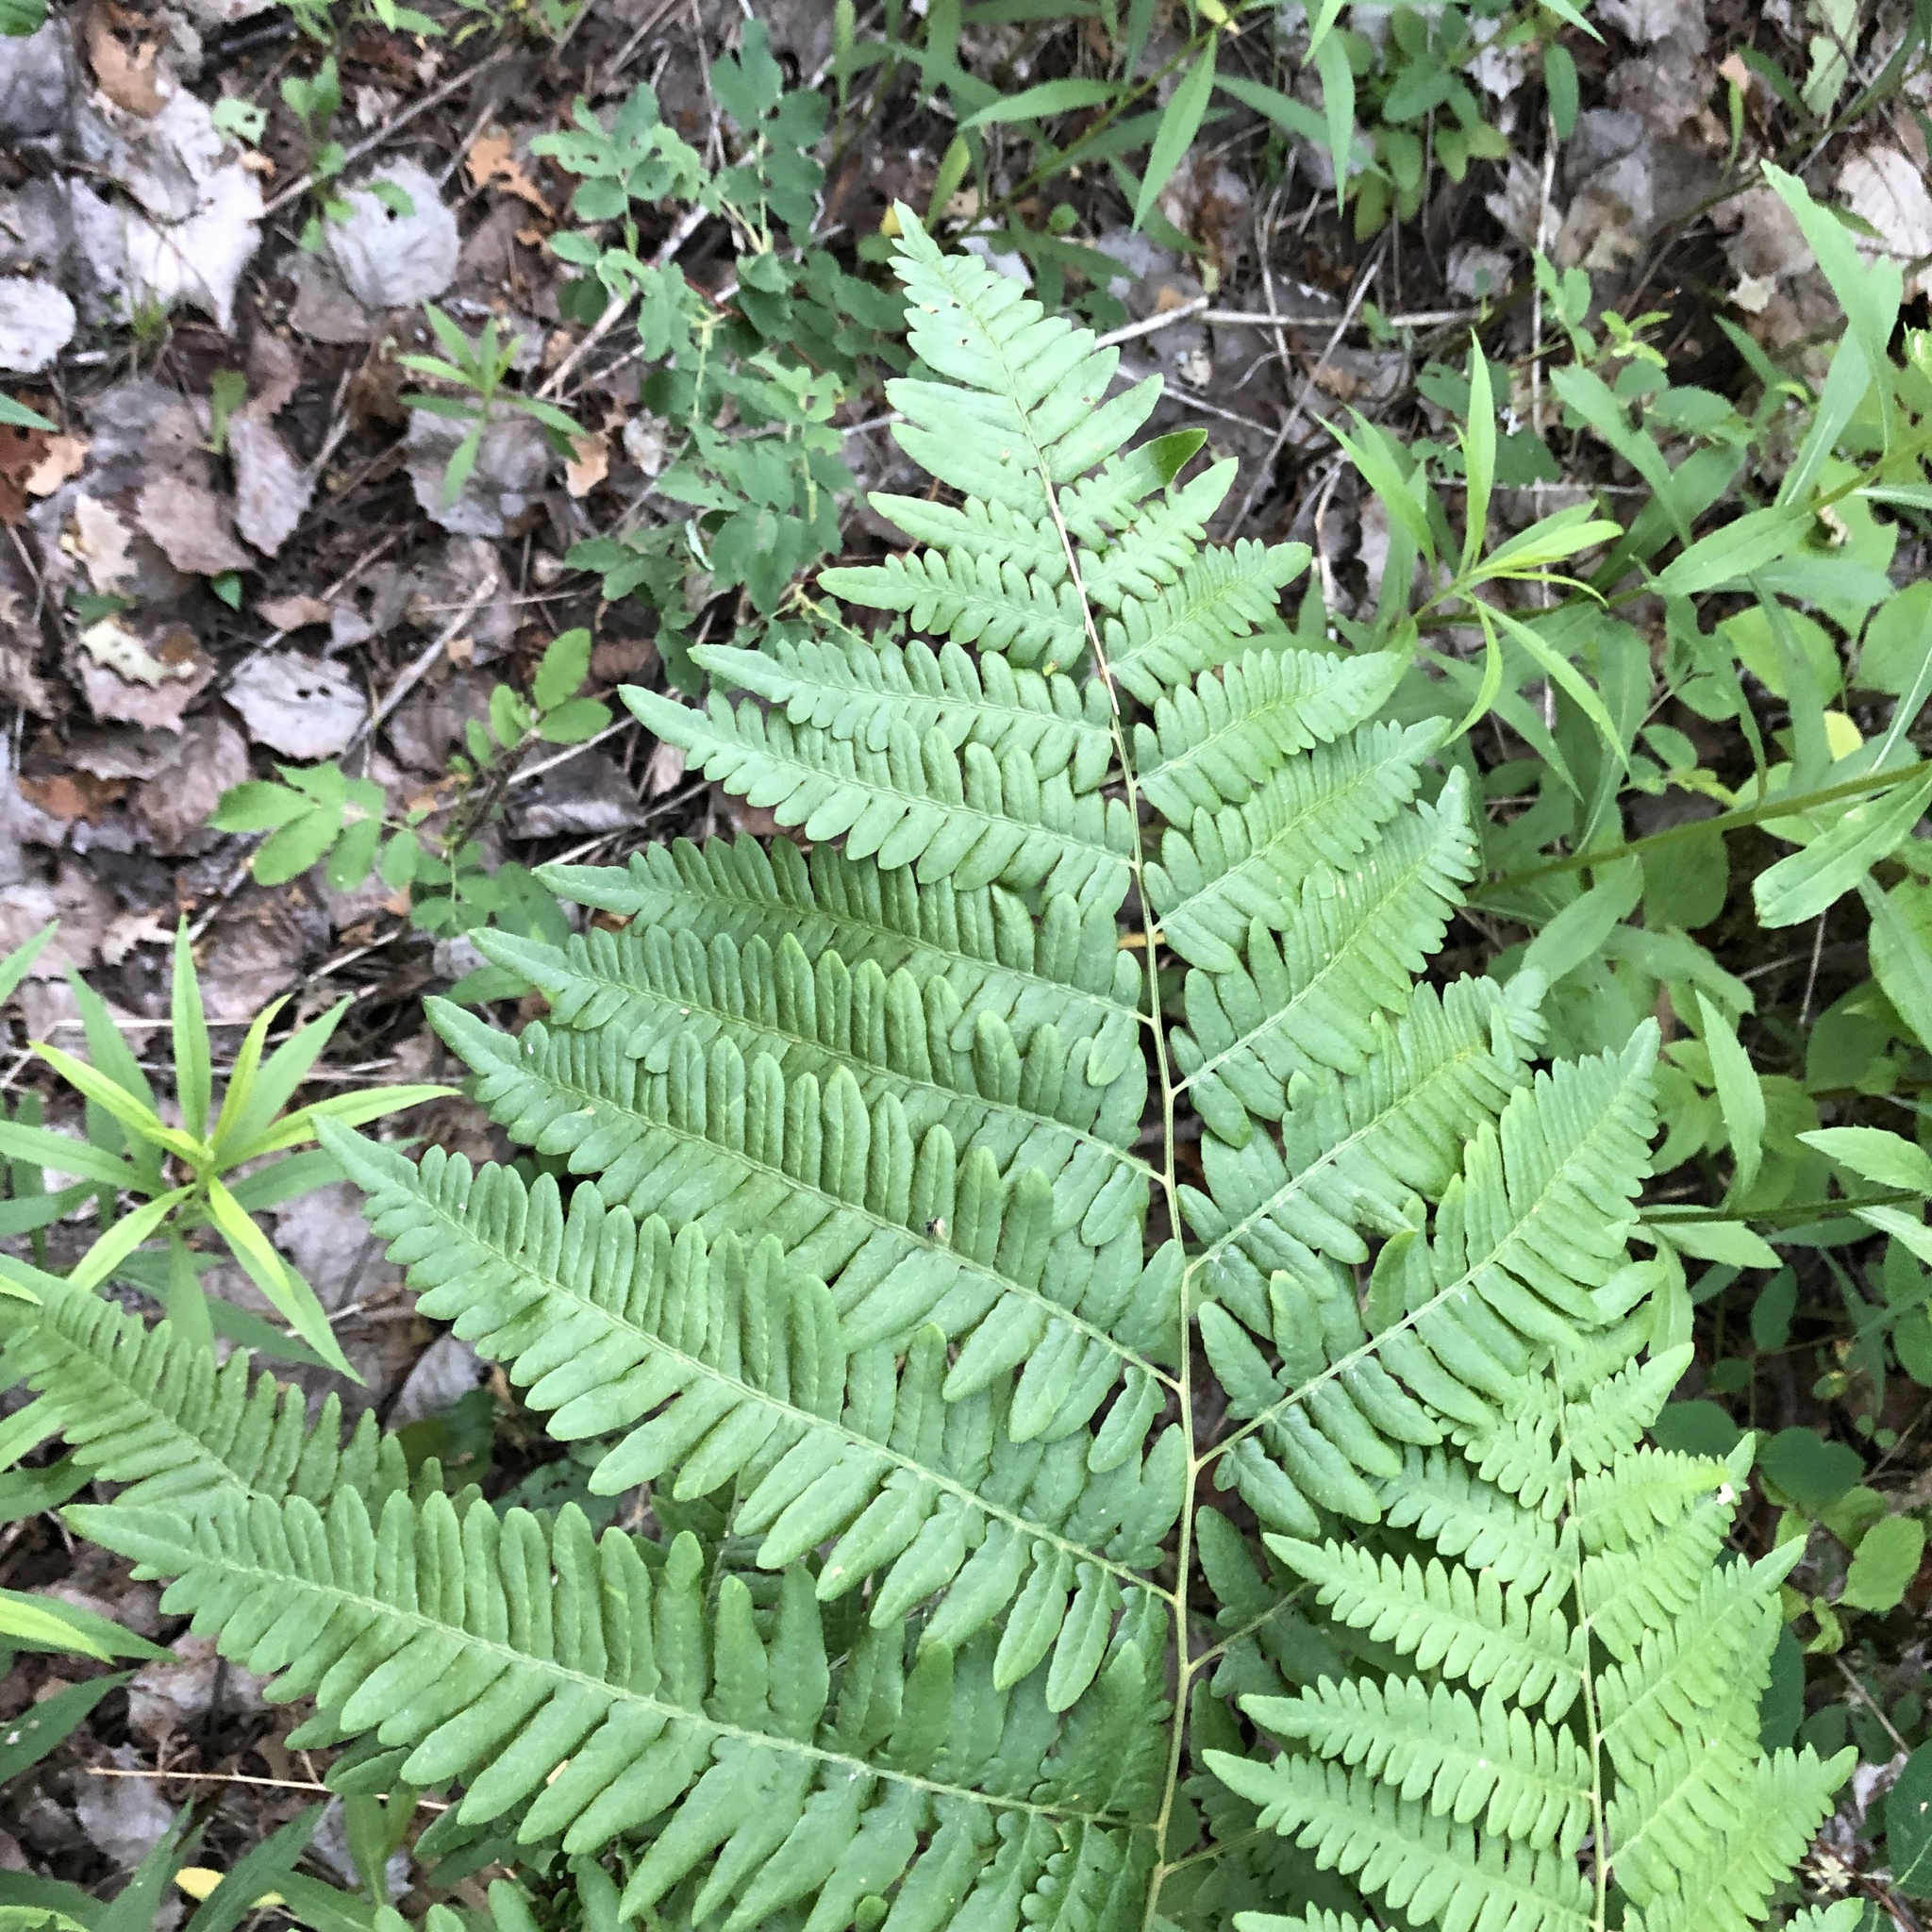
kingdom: Plantae
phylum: Tracheophyta
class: Polypodiopsida
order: Polypodiales
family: Dennstaedtiaceae
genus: Pteridium
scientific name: Pteridium aquilinum
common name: Bracken
